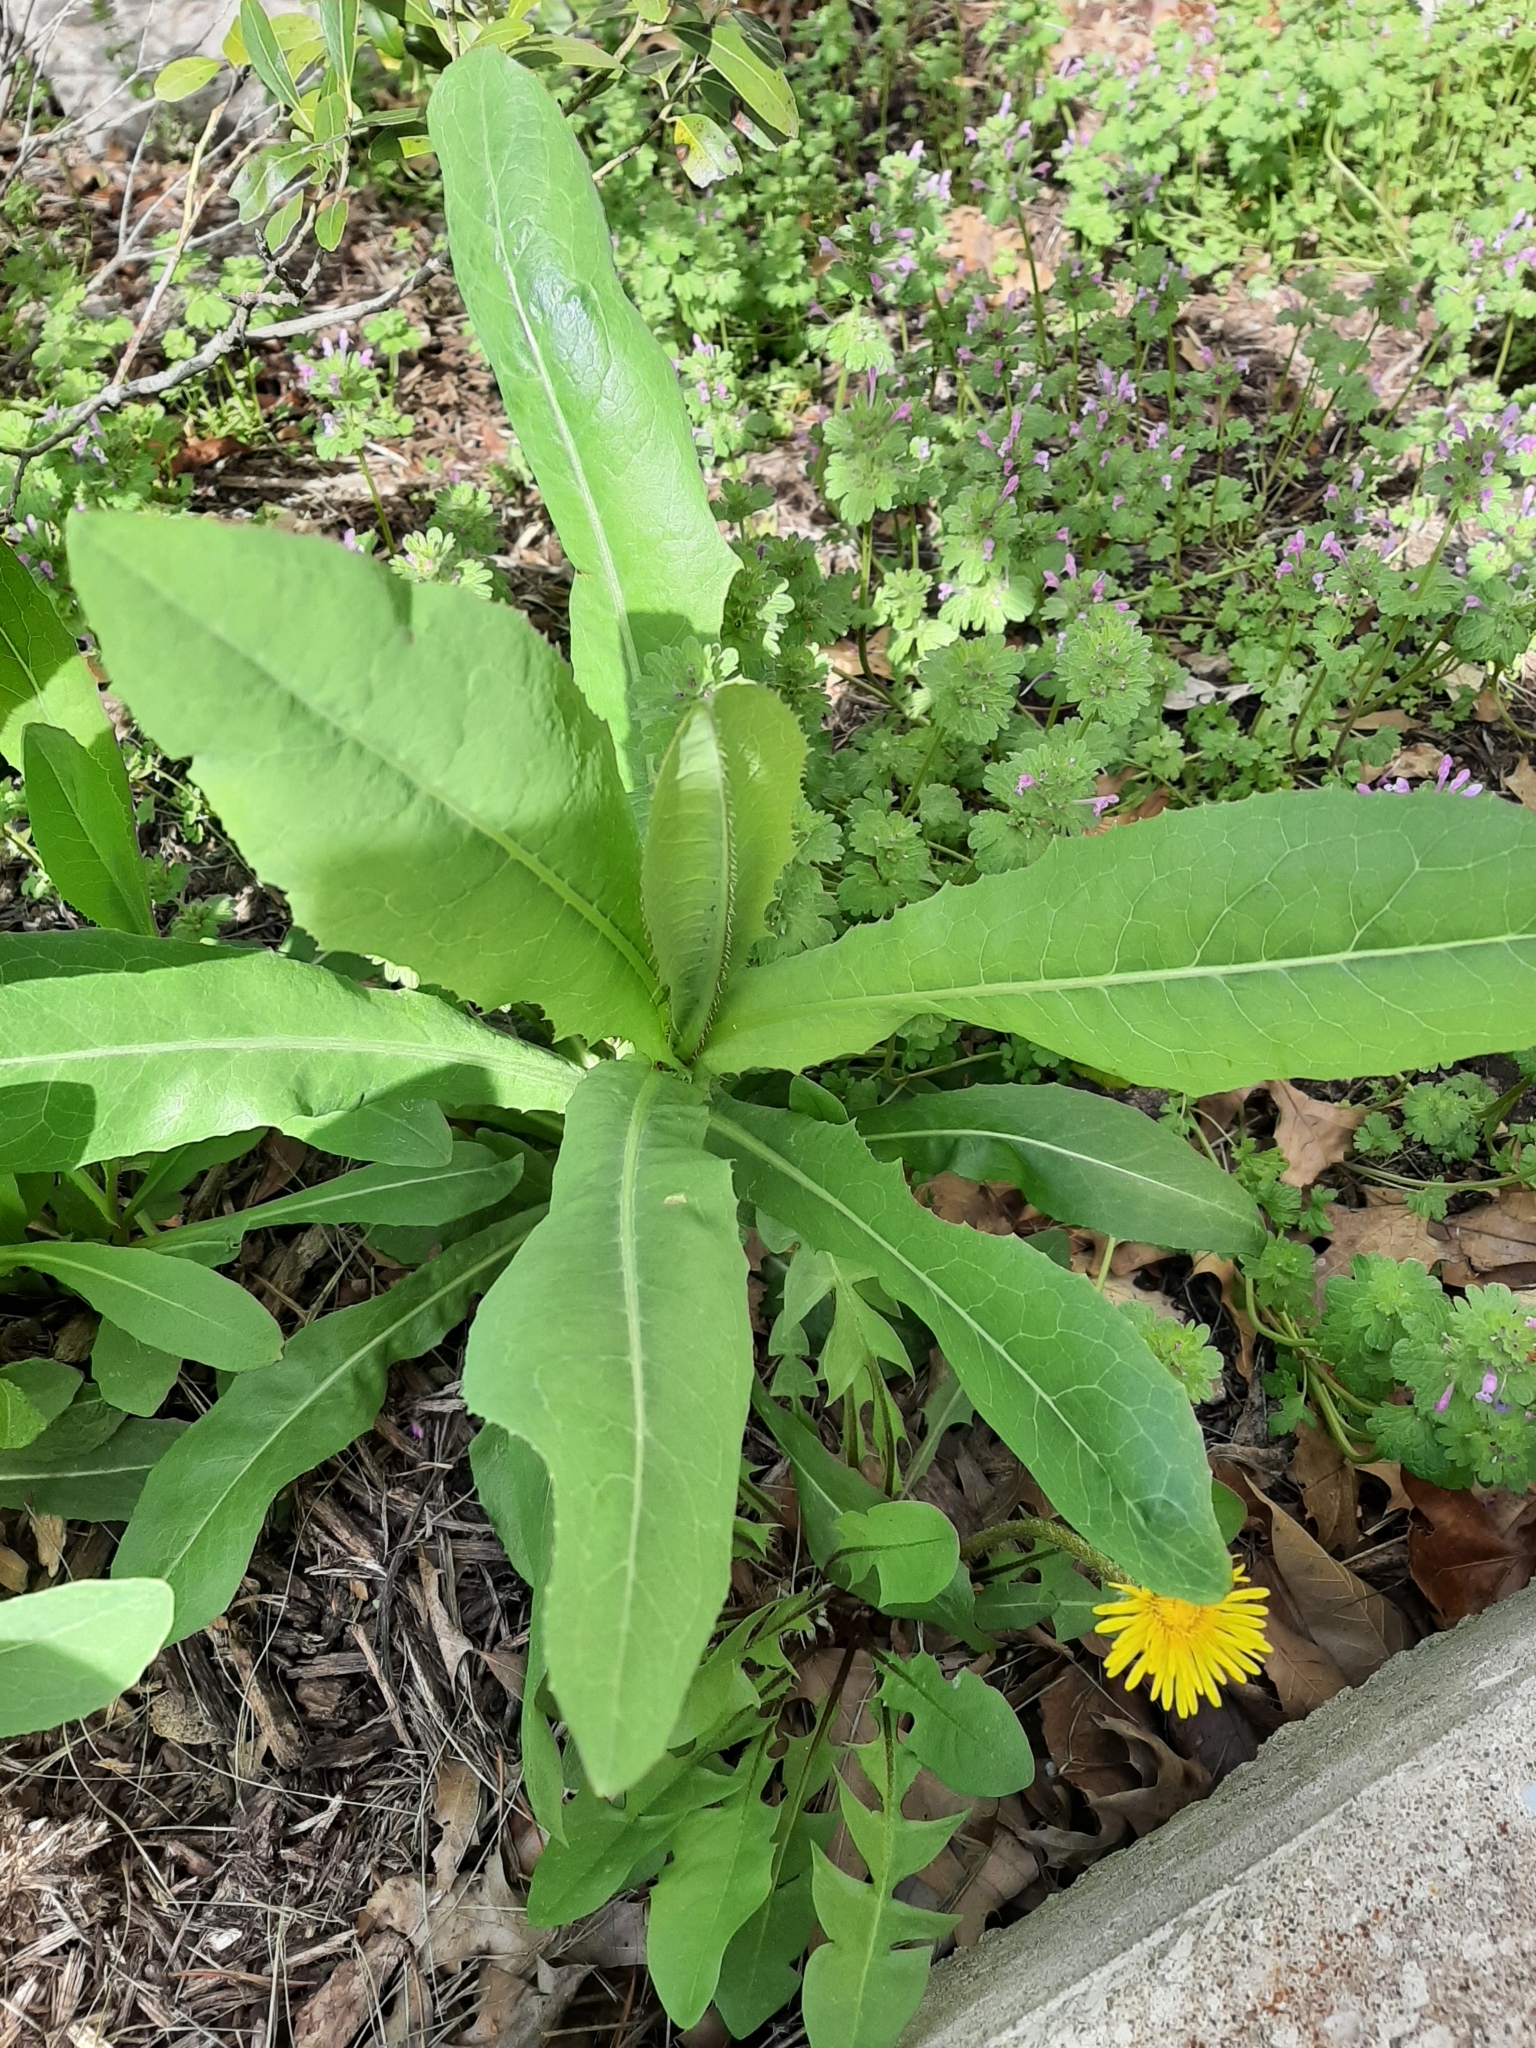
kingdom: Plantae
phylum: Tracheophyta
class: Magnoliopsida
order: Asterales
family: Asteraceae
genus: Lactuca
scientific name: Lactuca serriola
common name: Prickly lettuce
